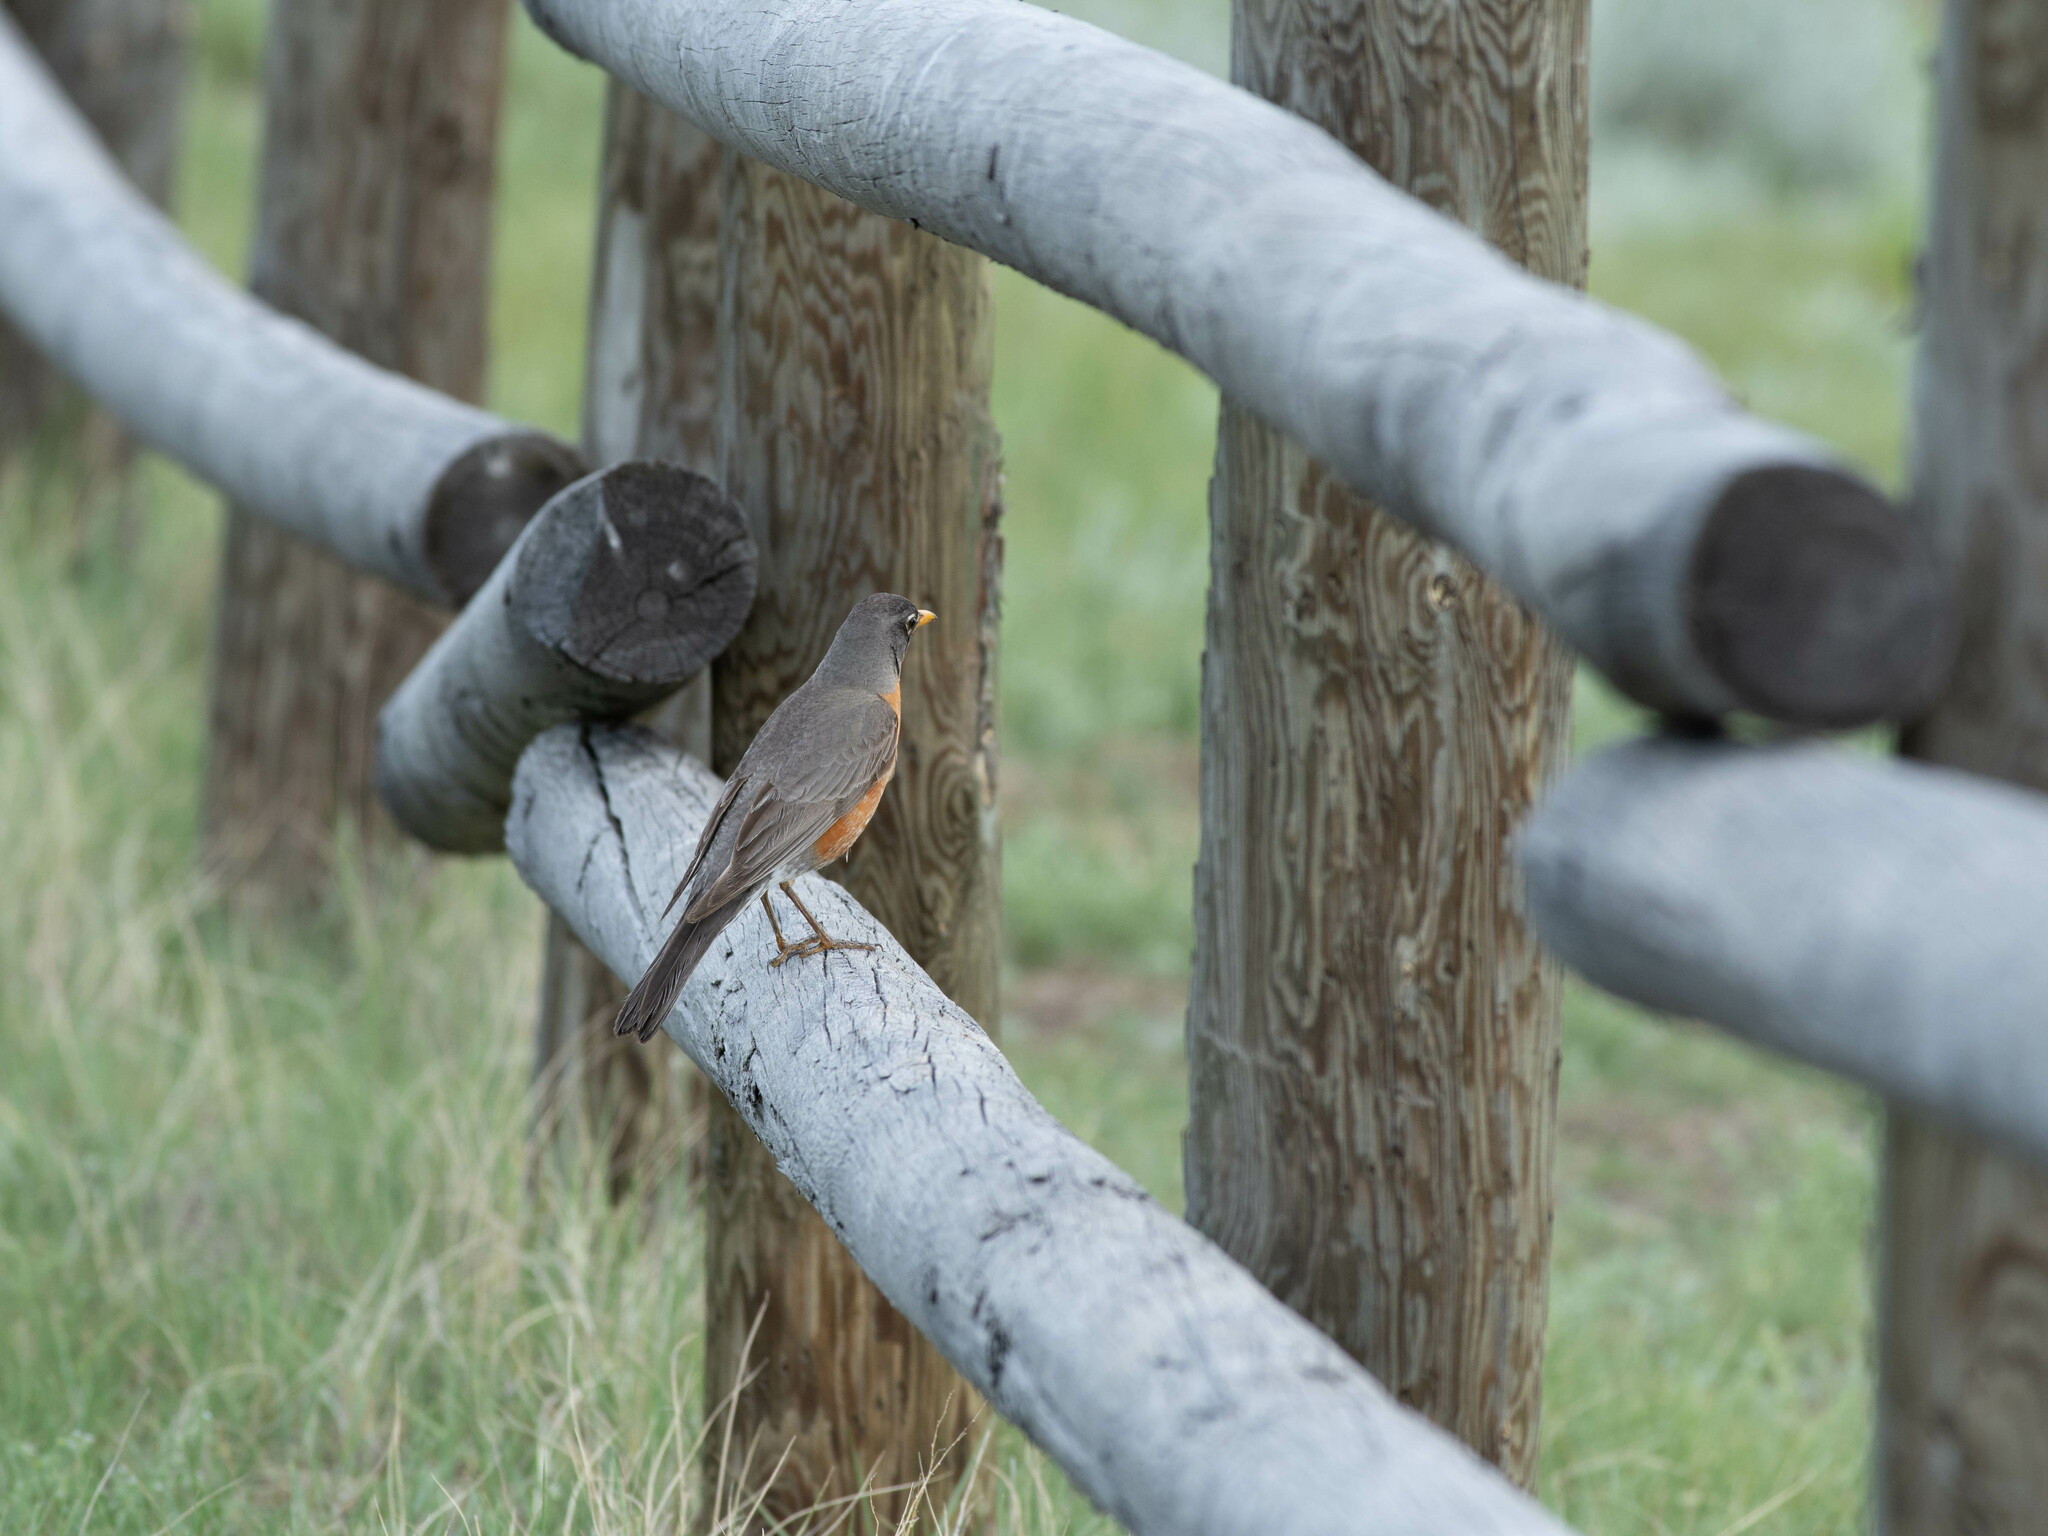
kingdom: Animalia
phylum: Chordata
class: Aves
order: Passeriformes
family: Turdidae
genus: Turdus
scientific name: Turdus migratorius
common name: American robin
